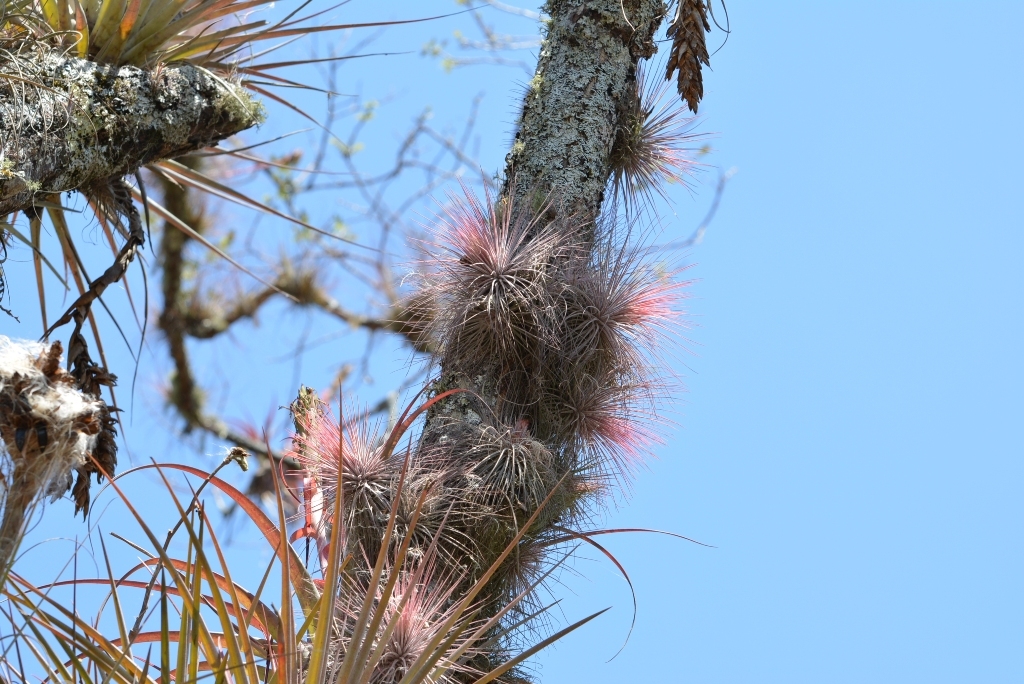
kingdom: Plantae
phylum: Tracheophyta
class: Liliopsida
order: Poales
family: Bromeliaceae
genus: Tillandsia
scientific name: Tillandsia magnusiana
